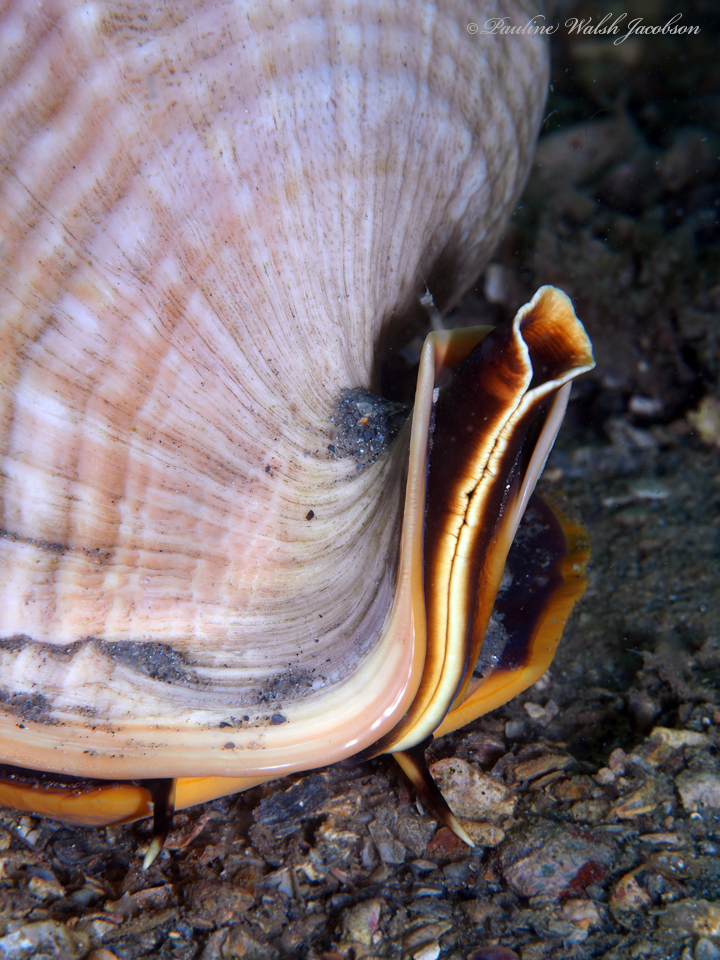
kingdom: Animalia
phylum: Mollusca
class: Gastropoda
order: Littorinimorpha
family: Cassidae
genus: Cassis
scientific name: Cassis madagascariensis
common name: Cameo helmet
